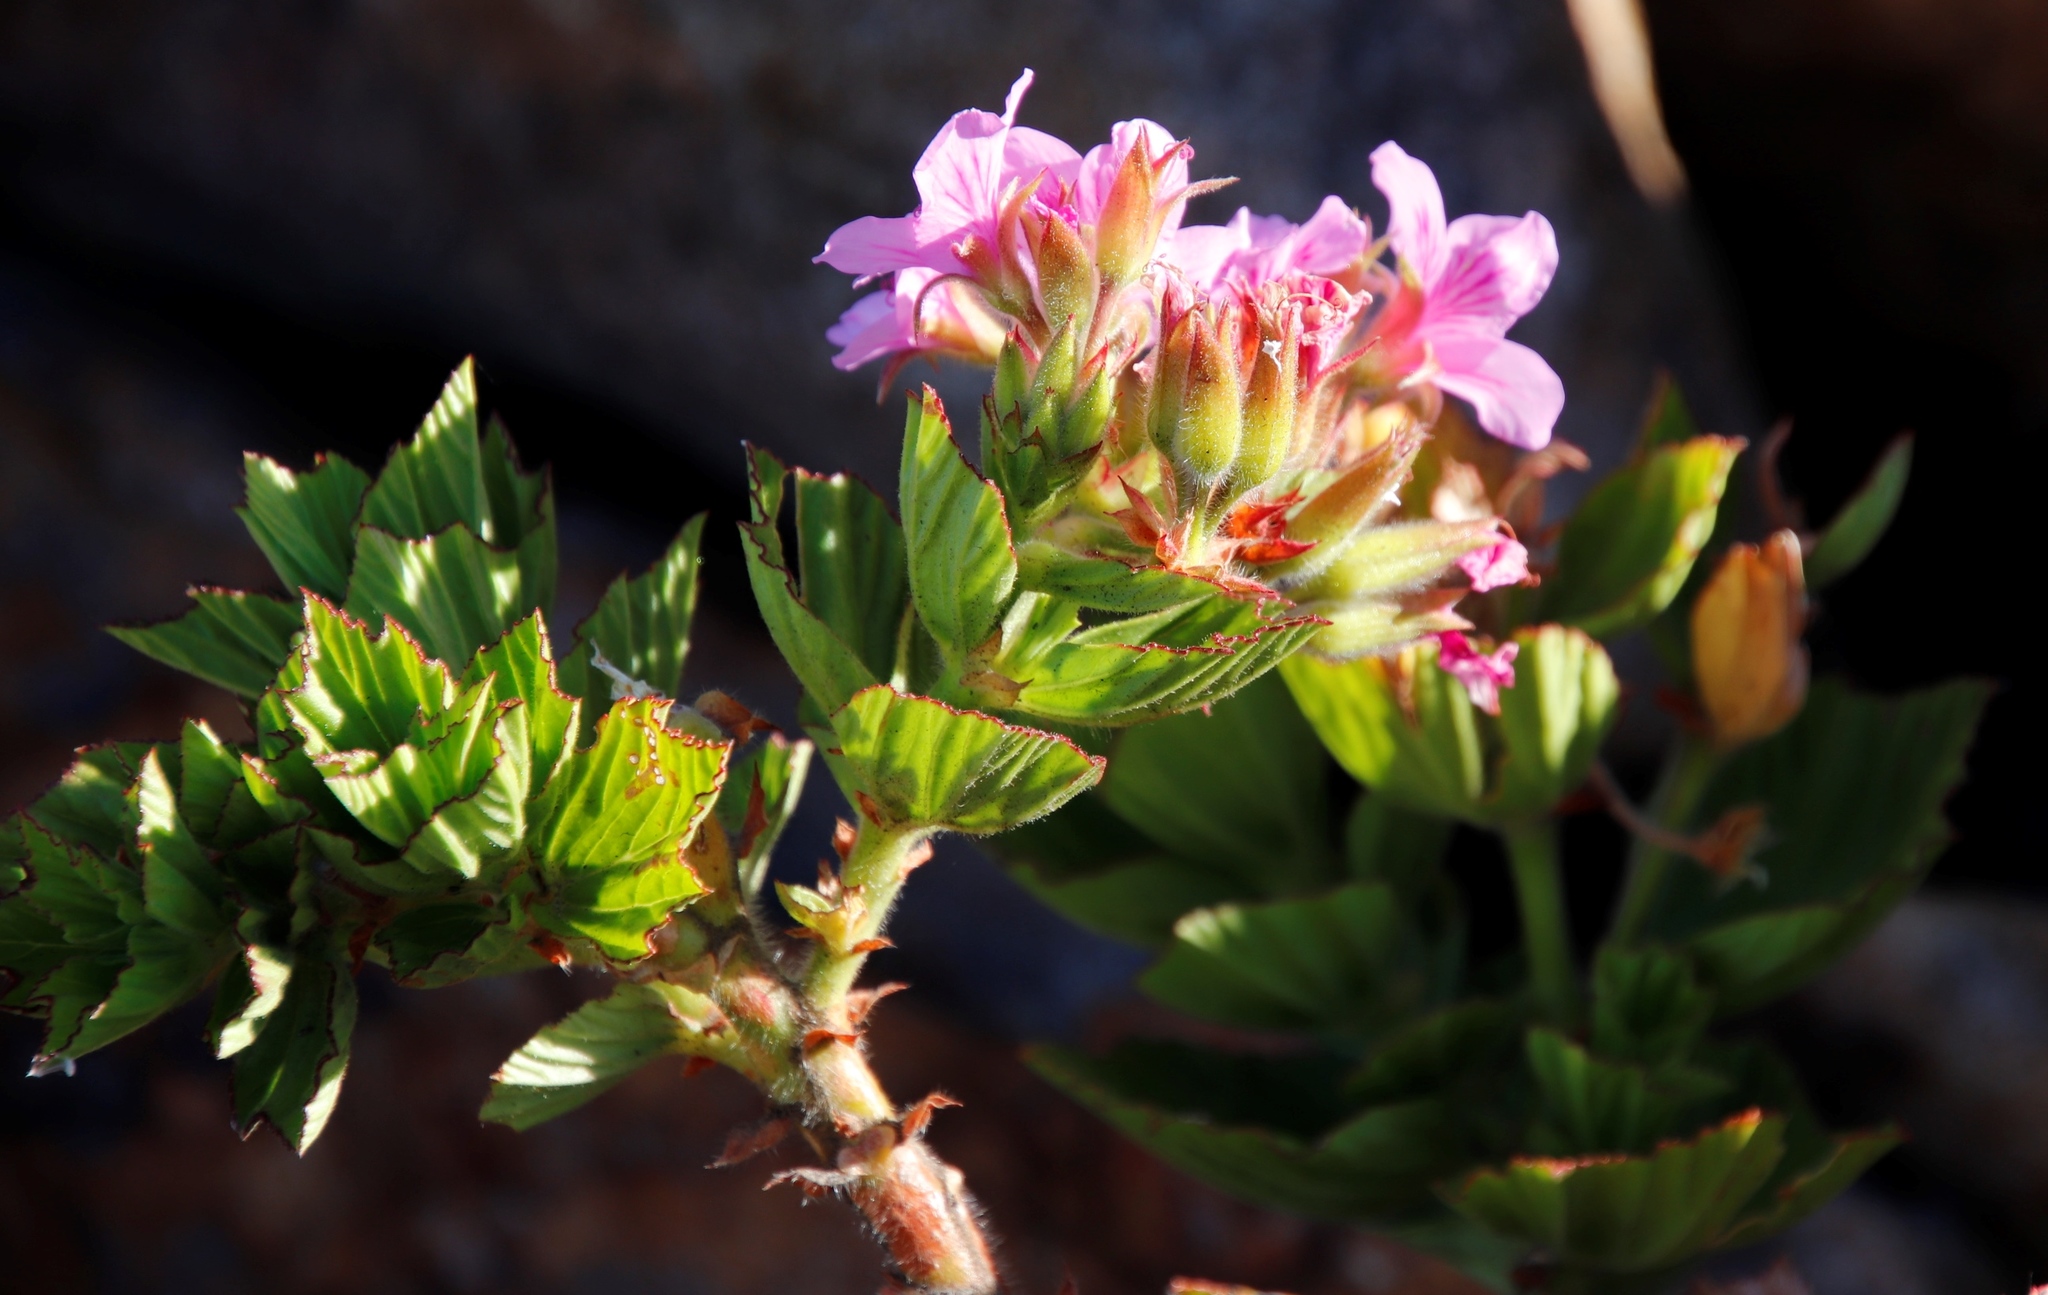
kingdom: Plantae
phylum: Tracheophyta
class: Magnoliopsida
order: Geraniales
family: Geraniaceae
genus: Pelargonium
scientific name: Pelargonium cucullatum
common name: Tree pelargonium
